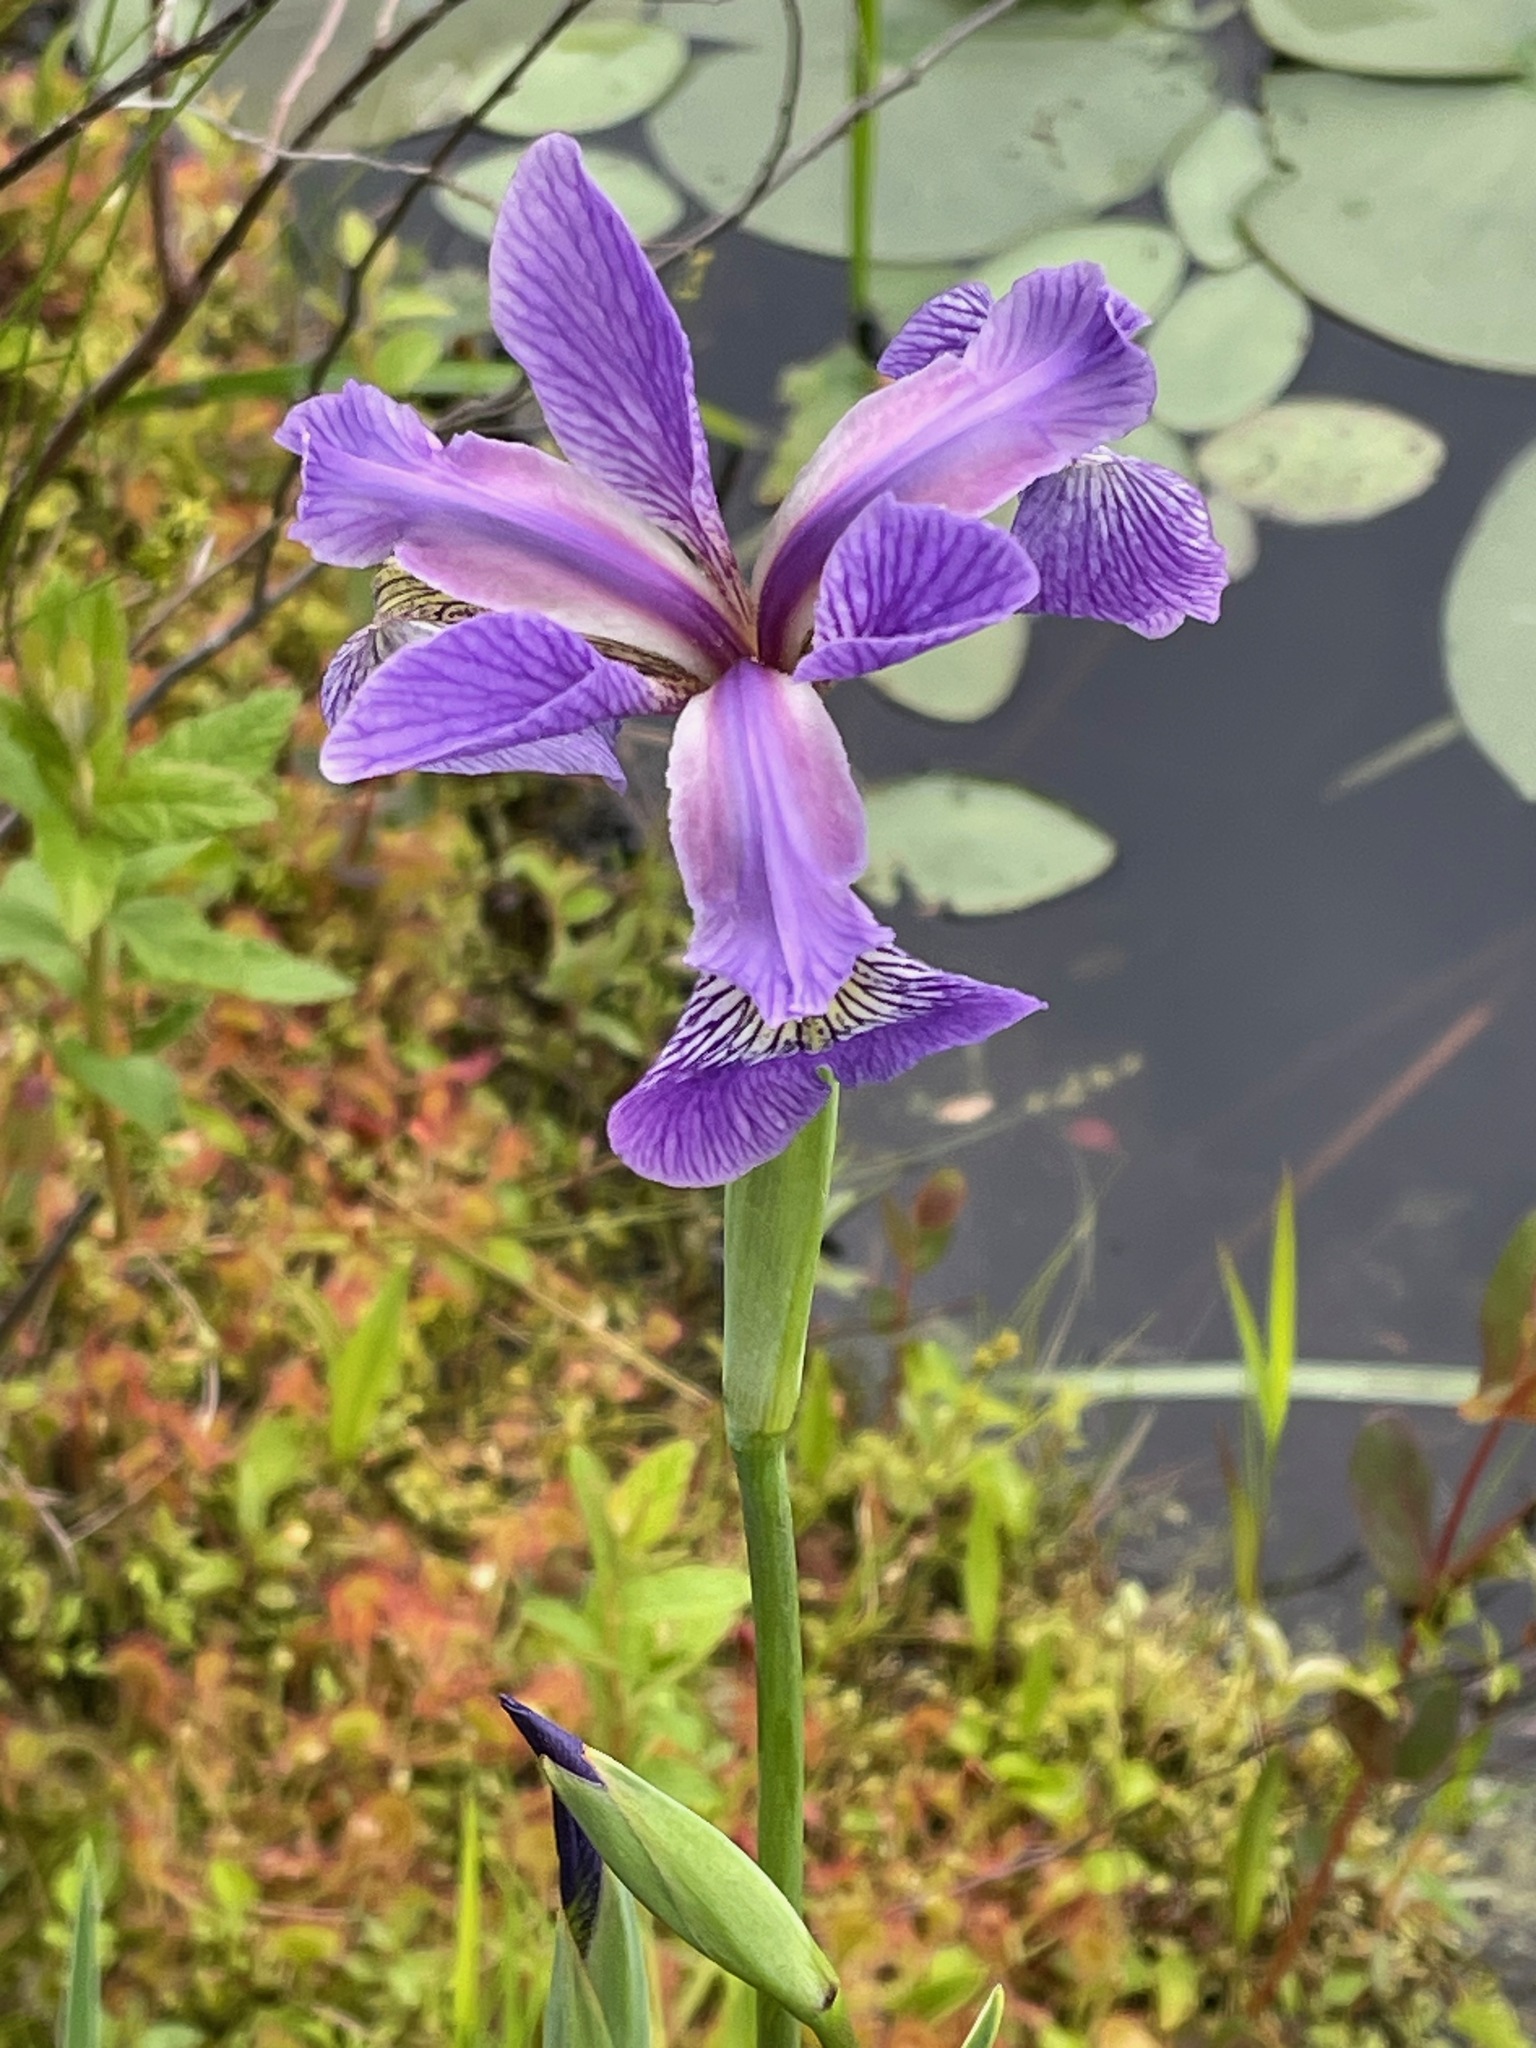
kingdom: Plantae
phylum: Tracheophyta
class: Liliopsida
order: Asparagales
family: Iridaceae
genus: Iris
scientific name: Iris versicolor
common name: Purple iris
